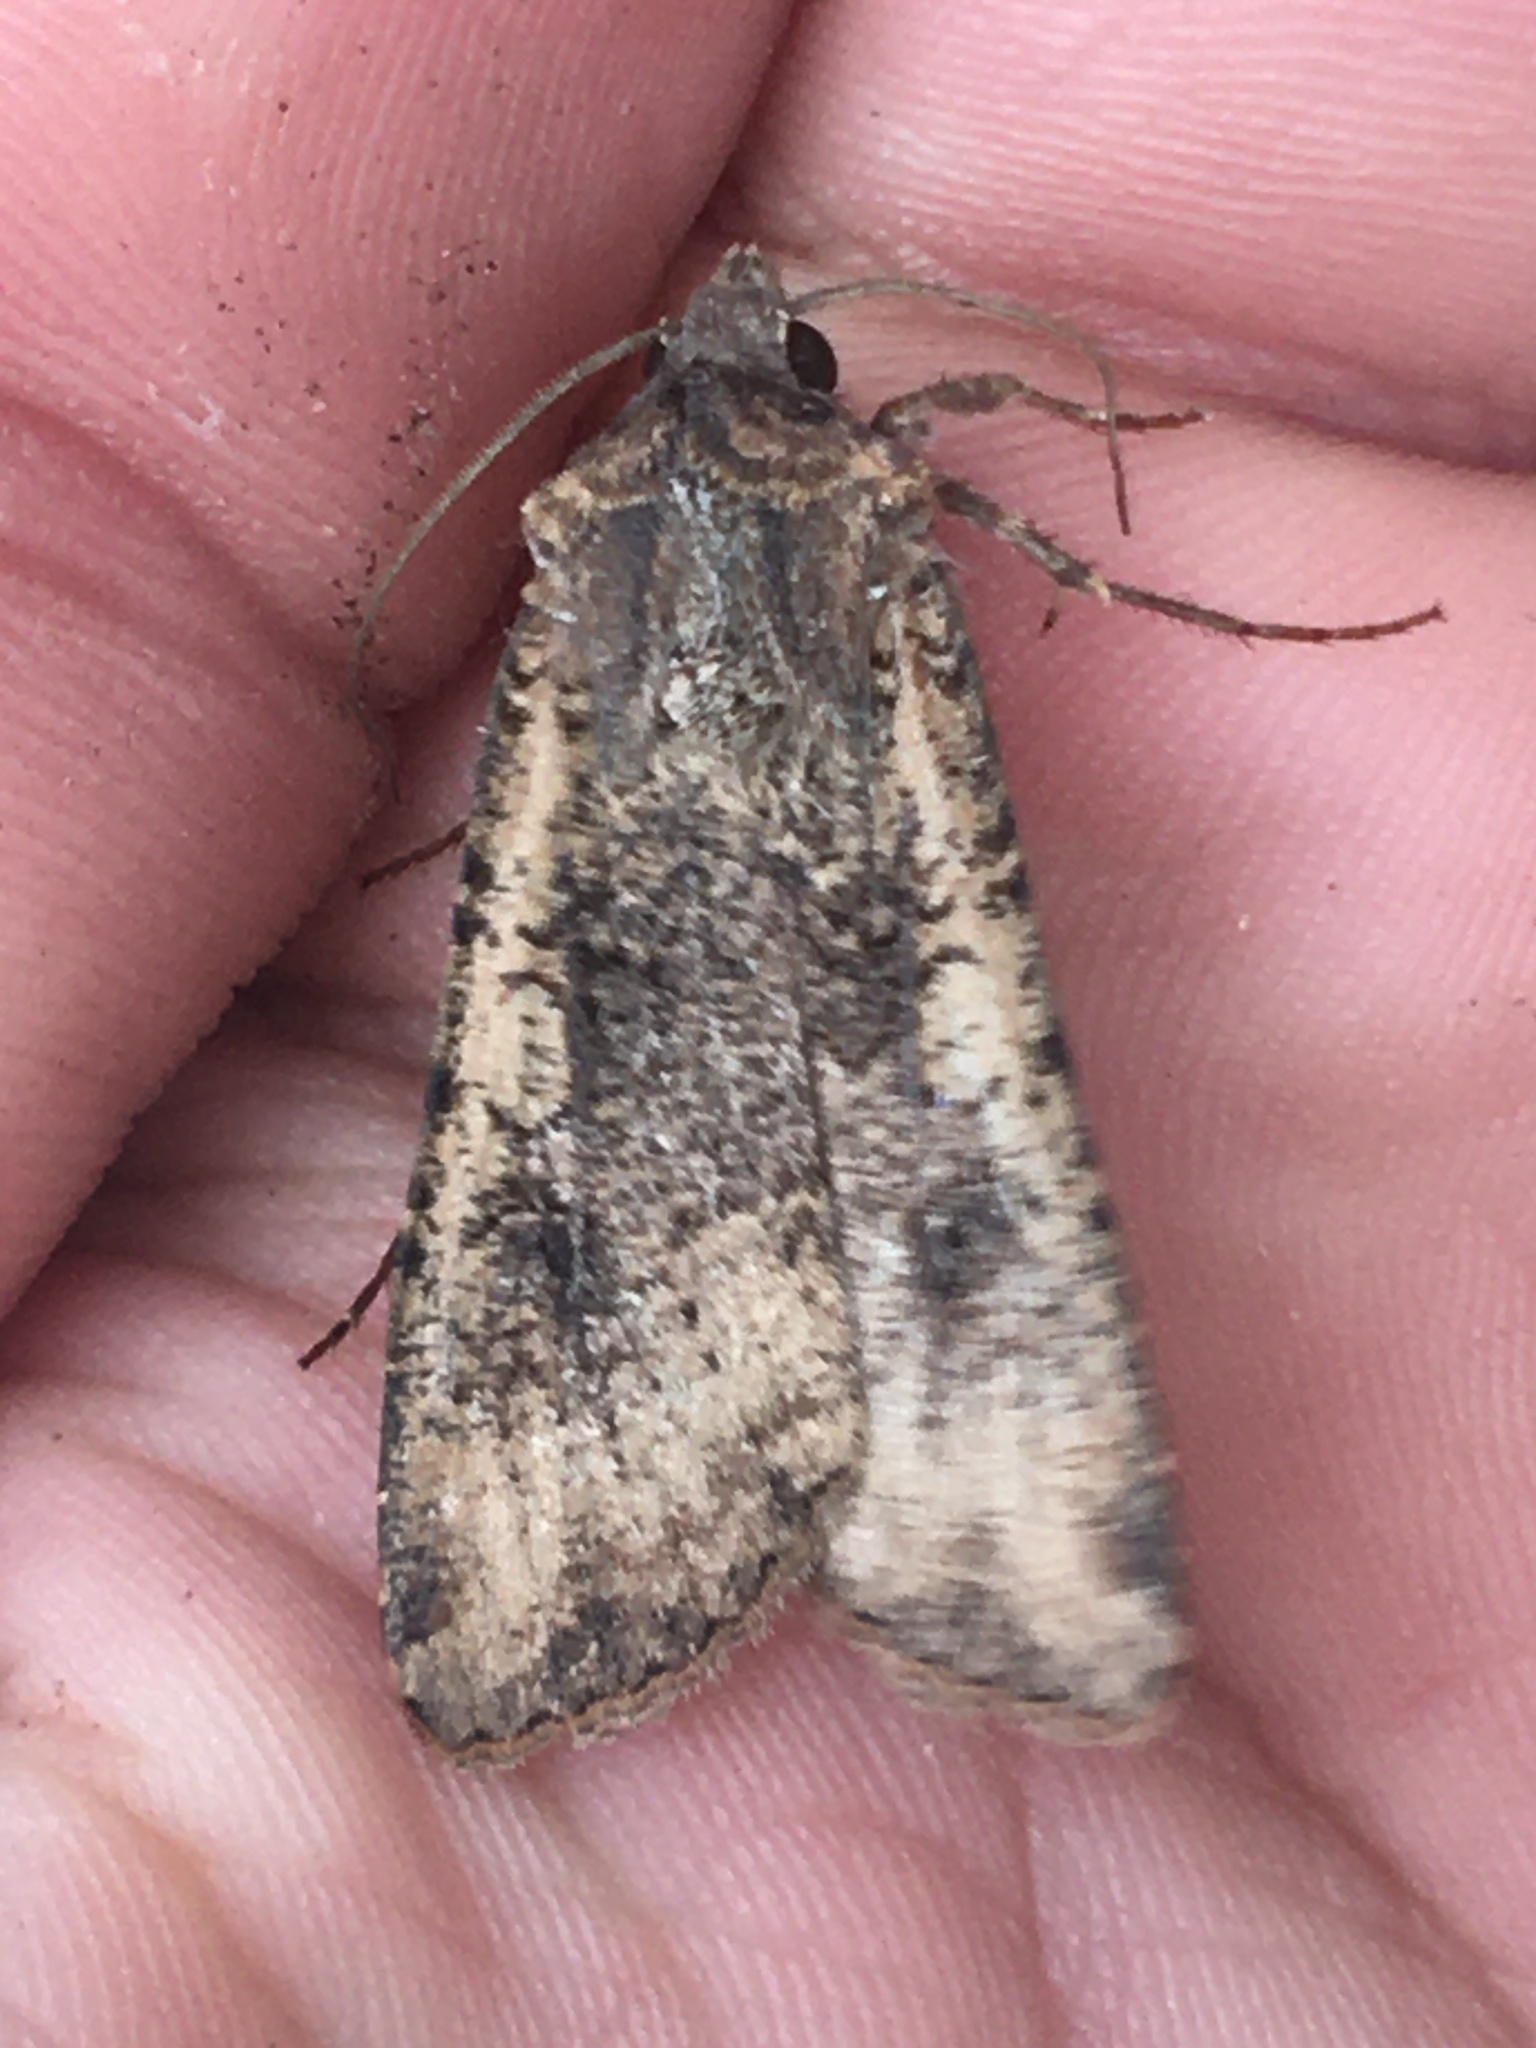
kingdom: Animalia
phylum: Arthropoda
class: Insecta
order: Lepidoptera
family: Noctuidae
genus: Peridroma
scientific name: Peridroma saucia
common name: Pearly underwing
